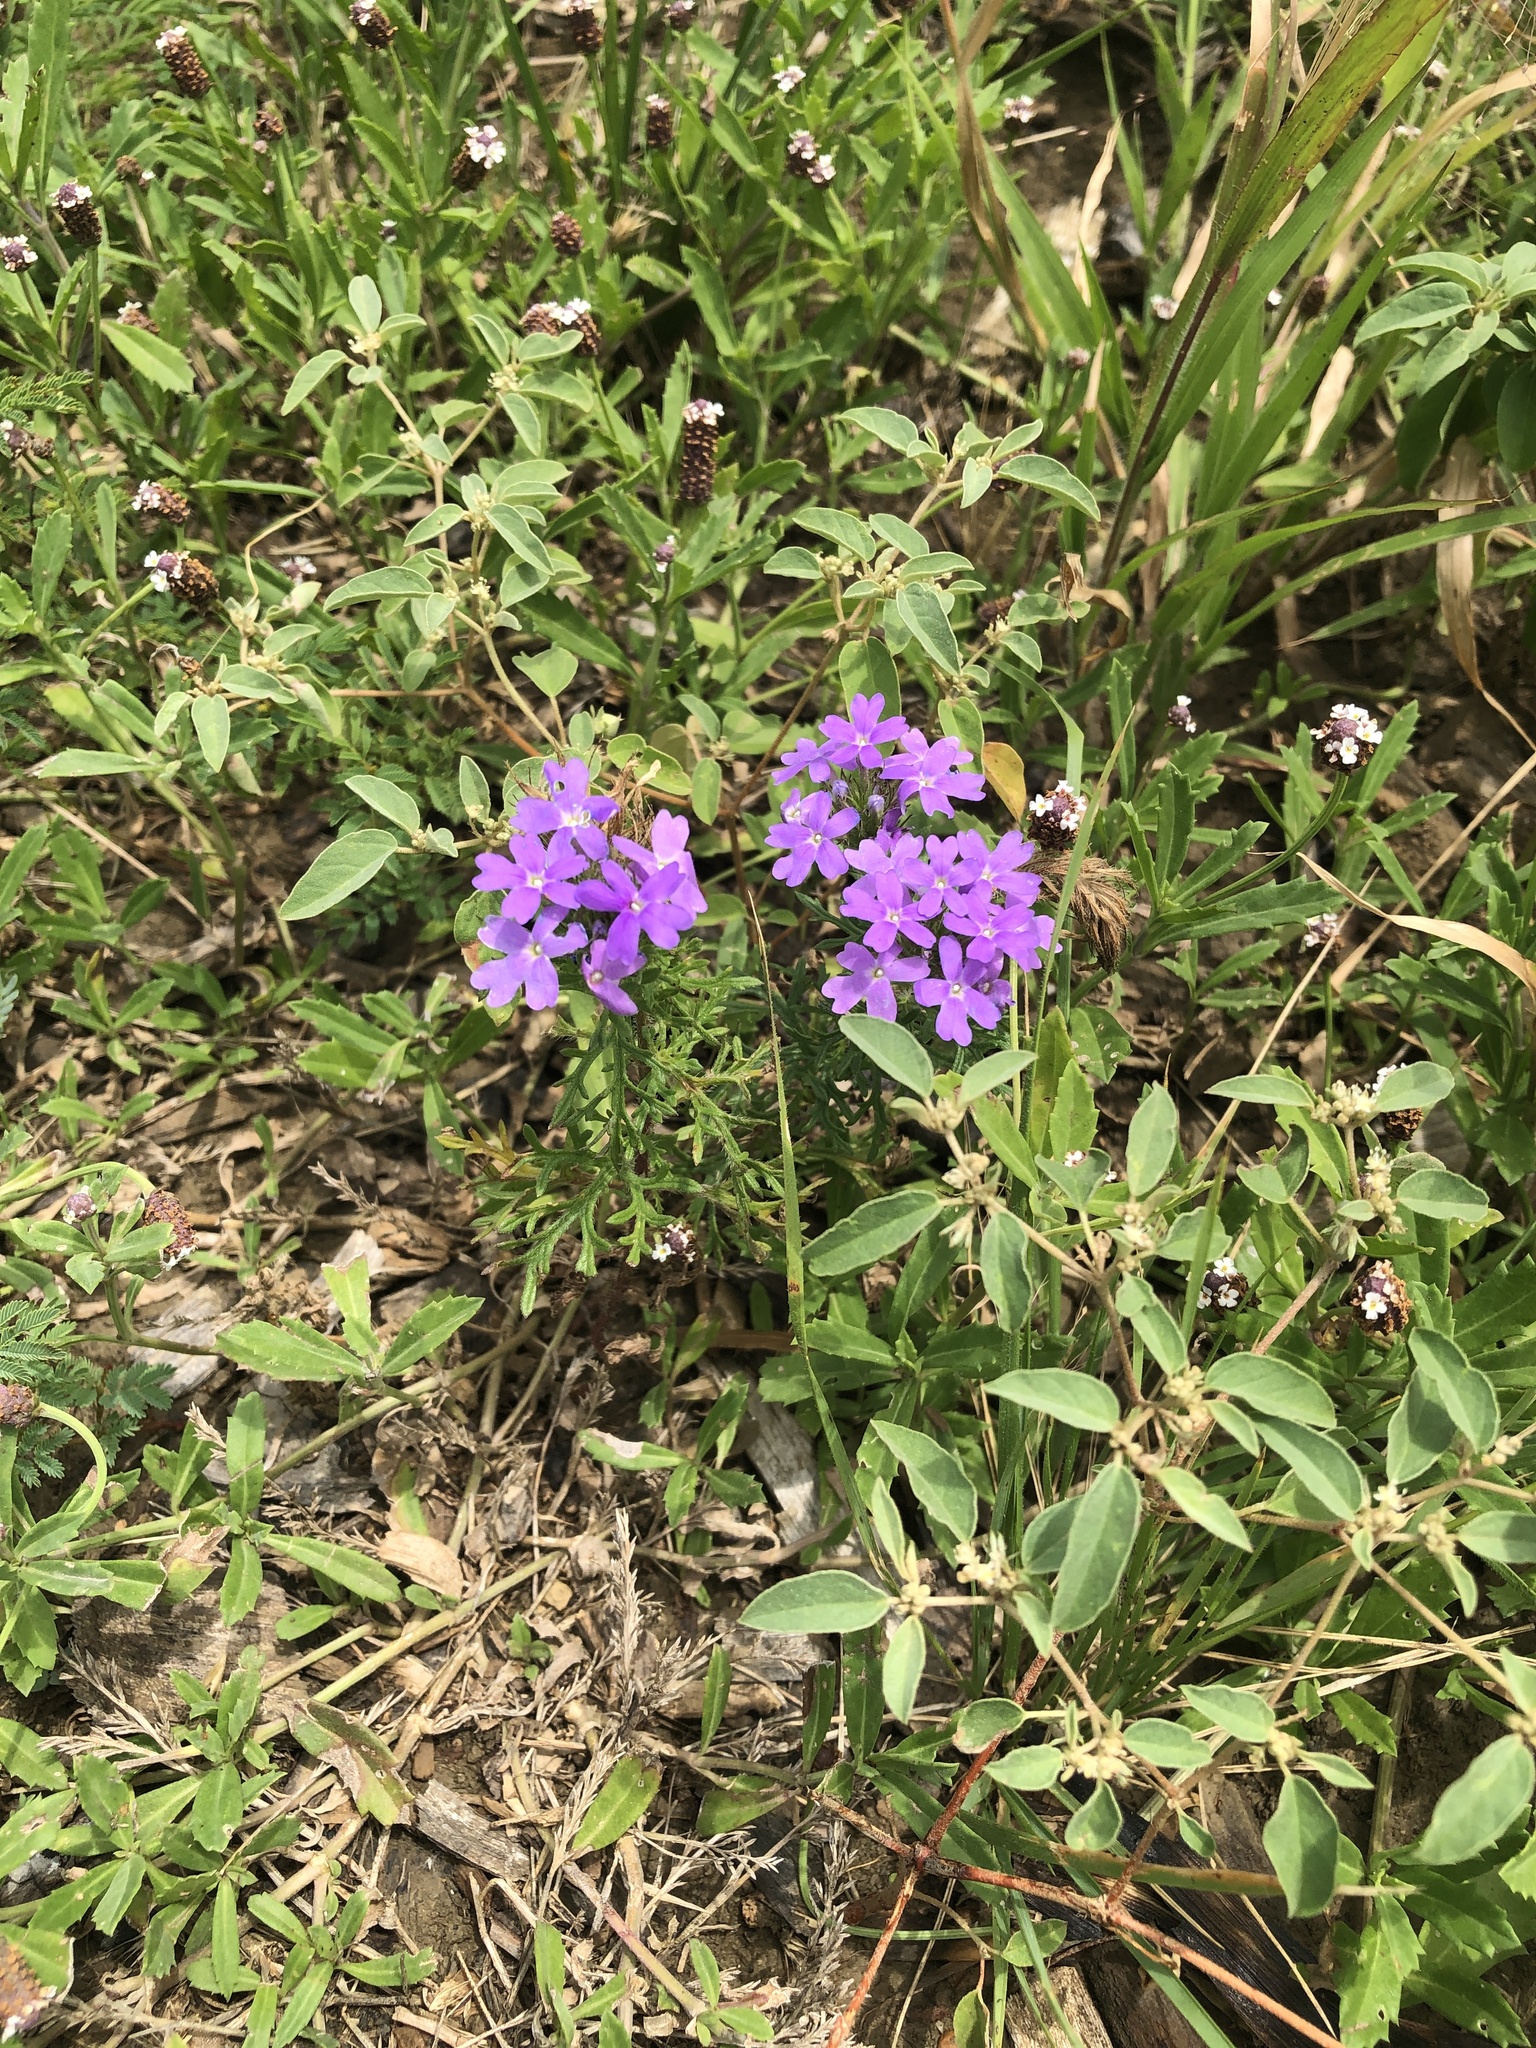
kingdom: Plantae
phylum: Tracheophyta
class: Magnoliopsida
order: Lamiales
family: Verbenaceae
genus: Verbena
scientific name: Verbena bipinnatifida
